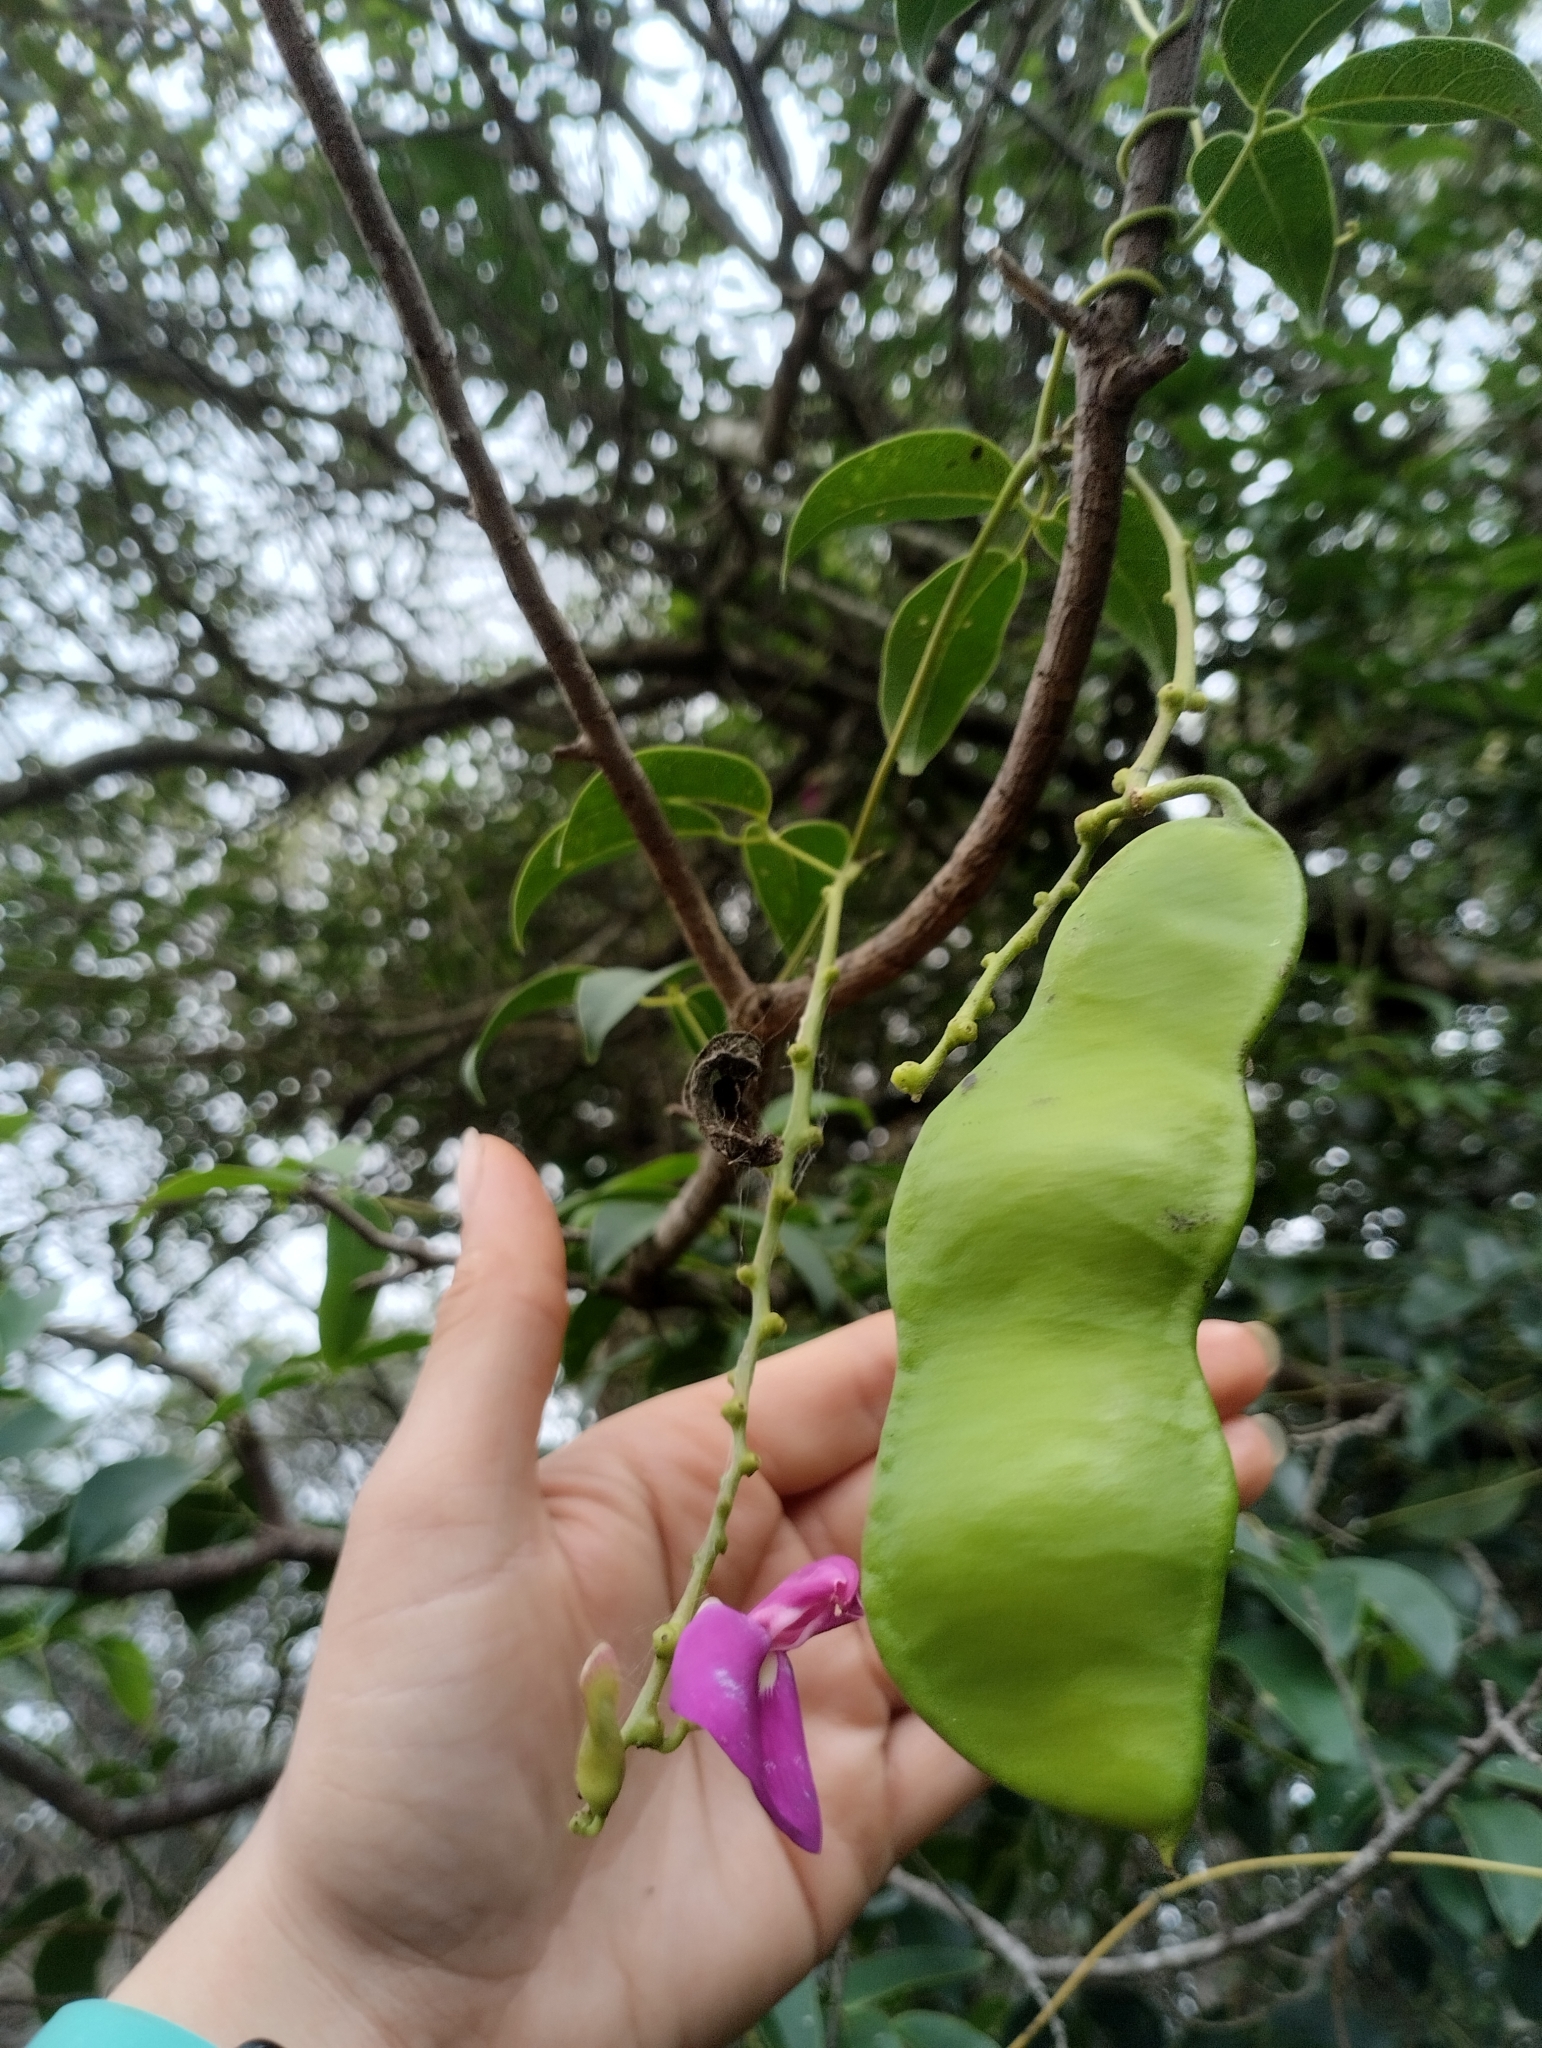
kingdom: Plantae
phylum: Tracheophyta
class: Magnoliopsida
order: Fabales
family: Fabaceae
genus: Canavalia
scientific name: Canavalia bonariensis
